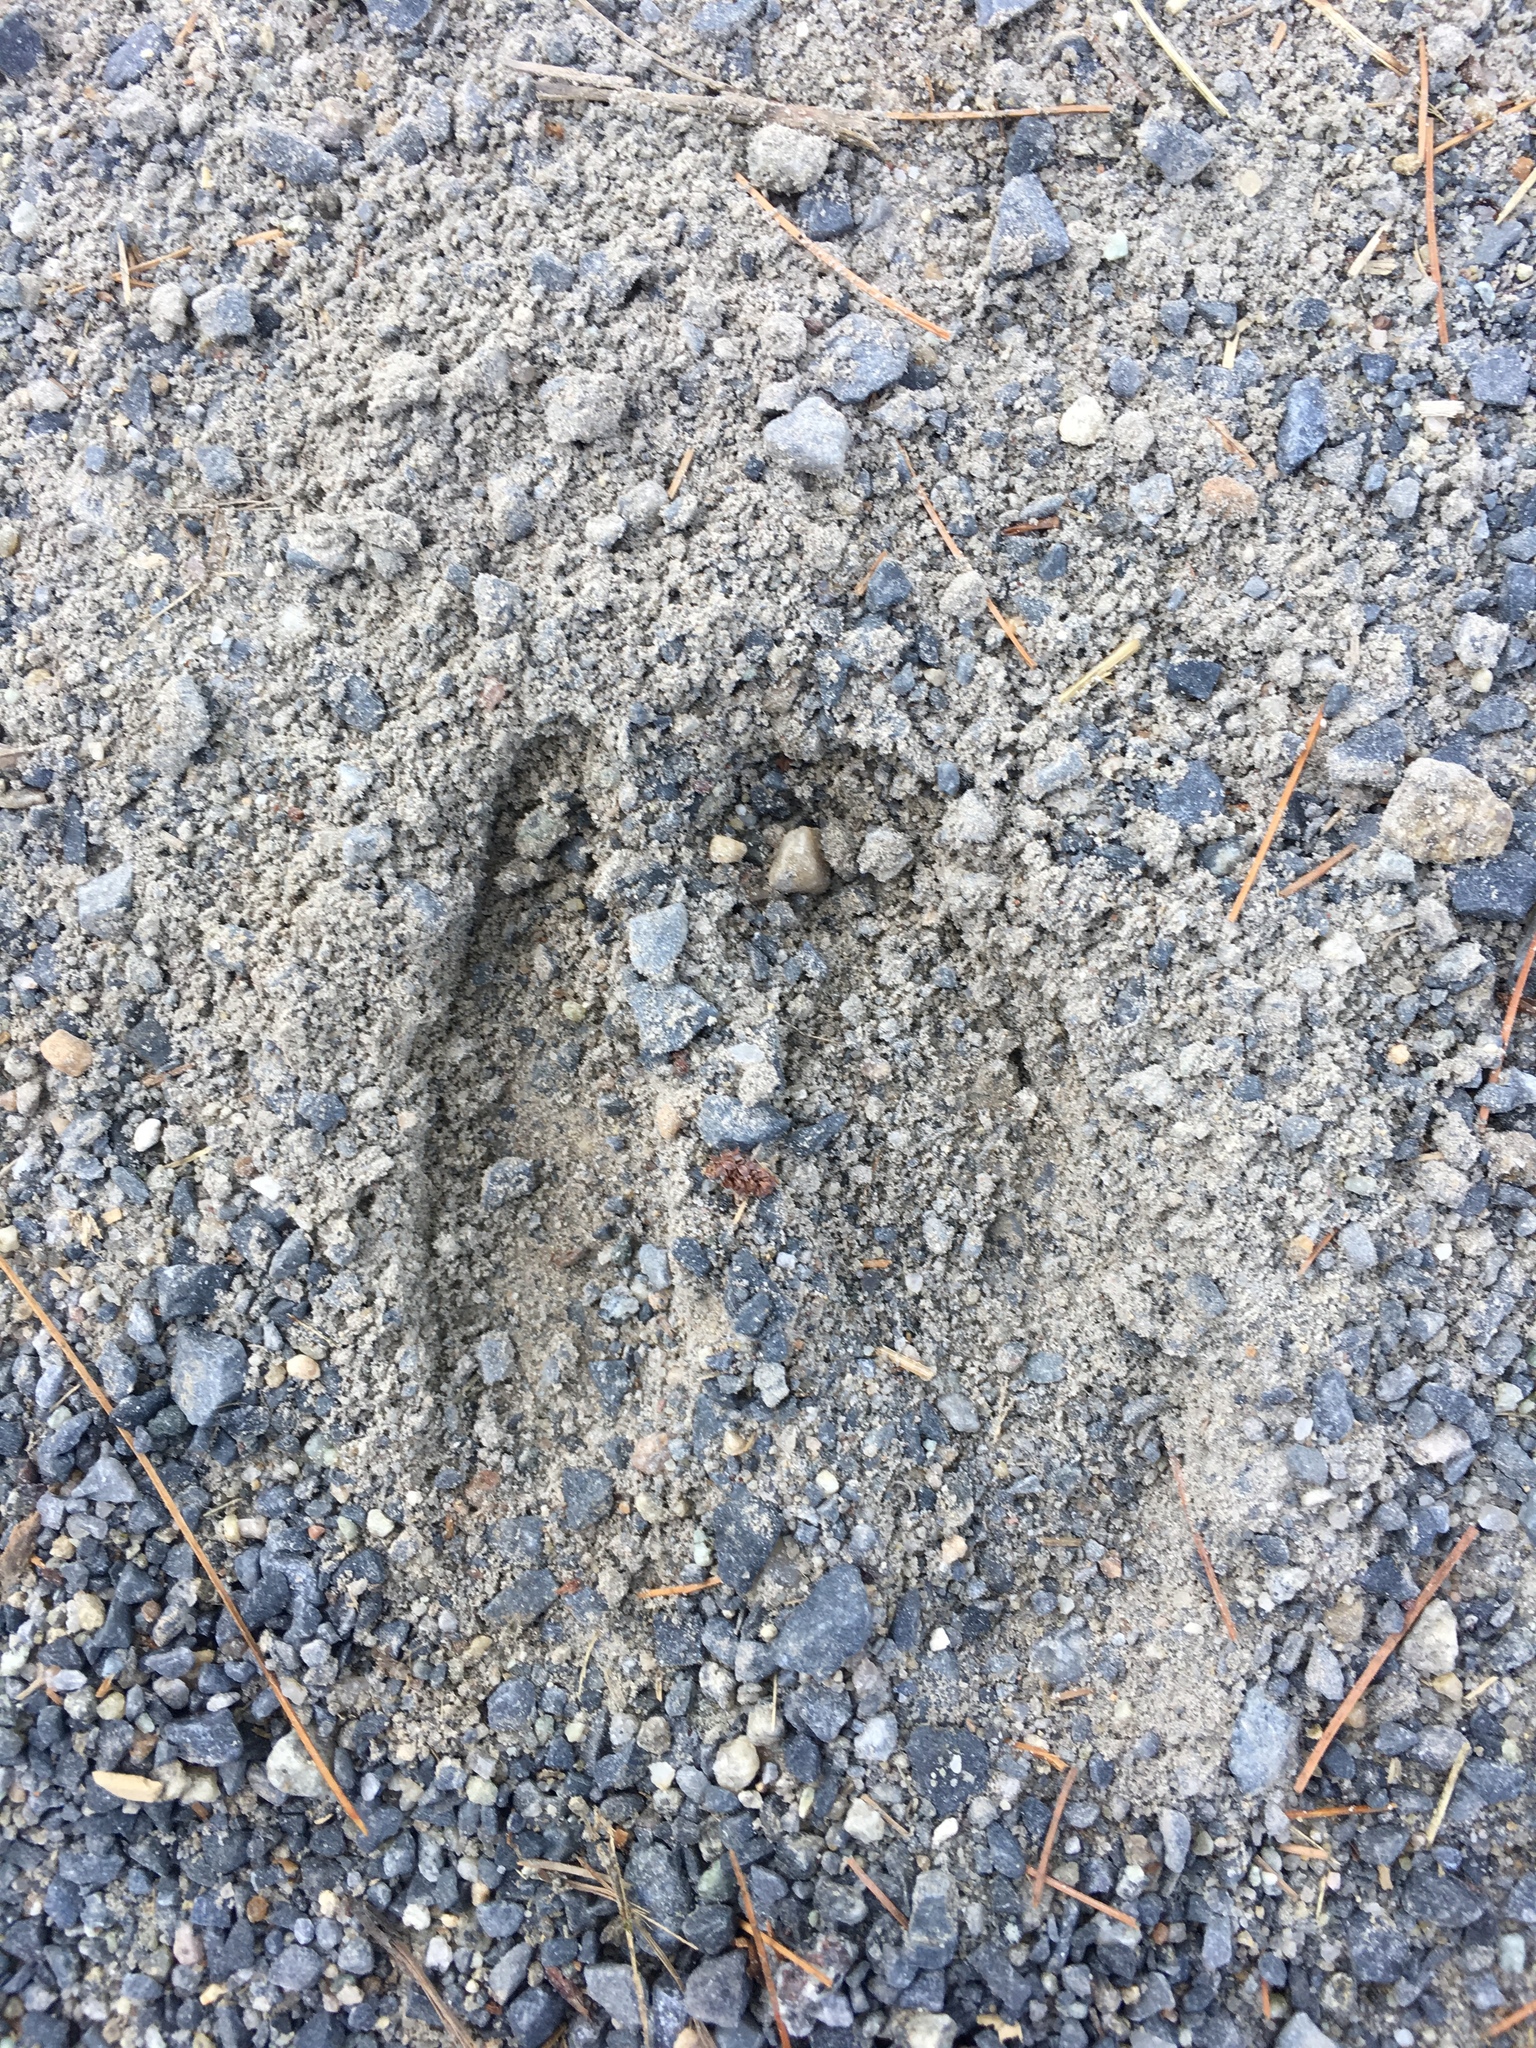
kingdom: Animalia
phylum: Chordata
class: Mammalia
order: Artiodactyla
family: Cervidae
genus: Odocoileus
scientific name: Odocoileus virginianus
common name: White-tailed deer
